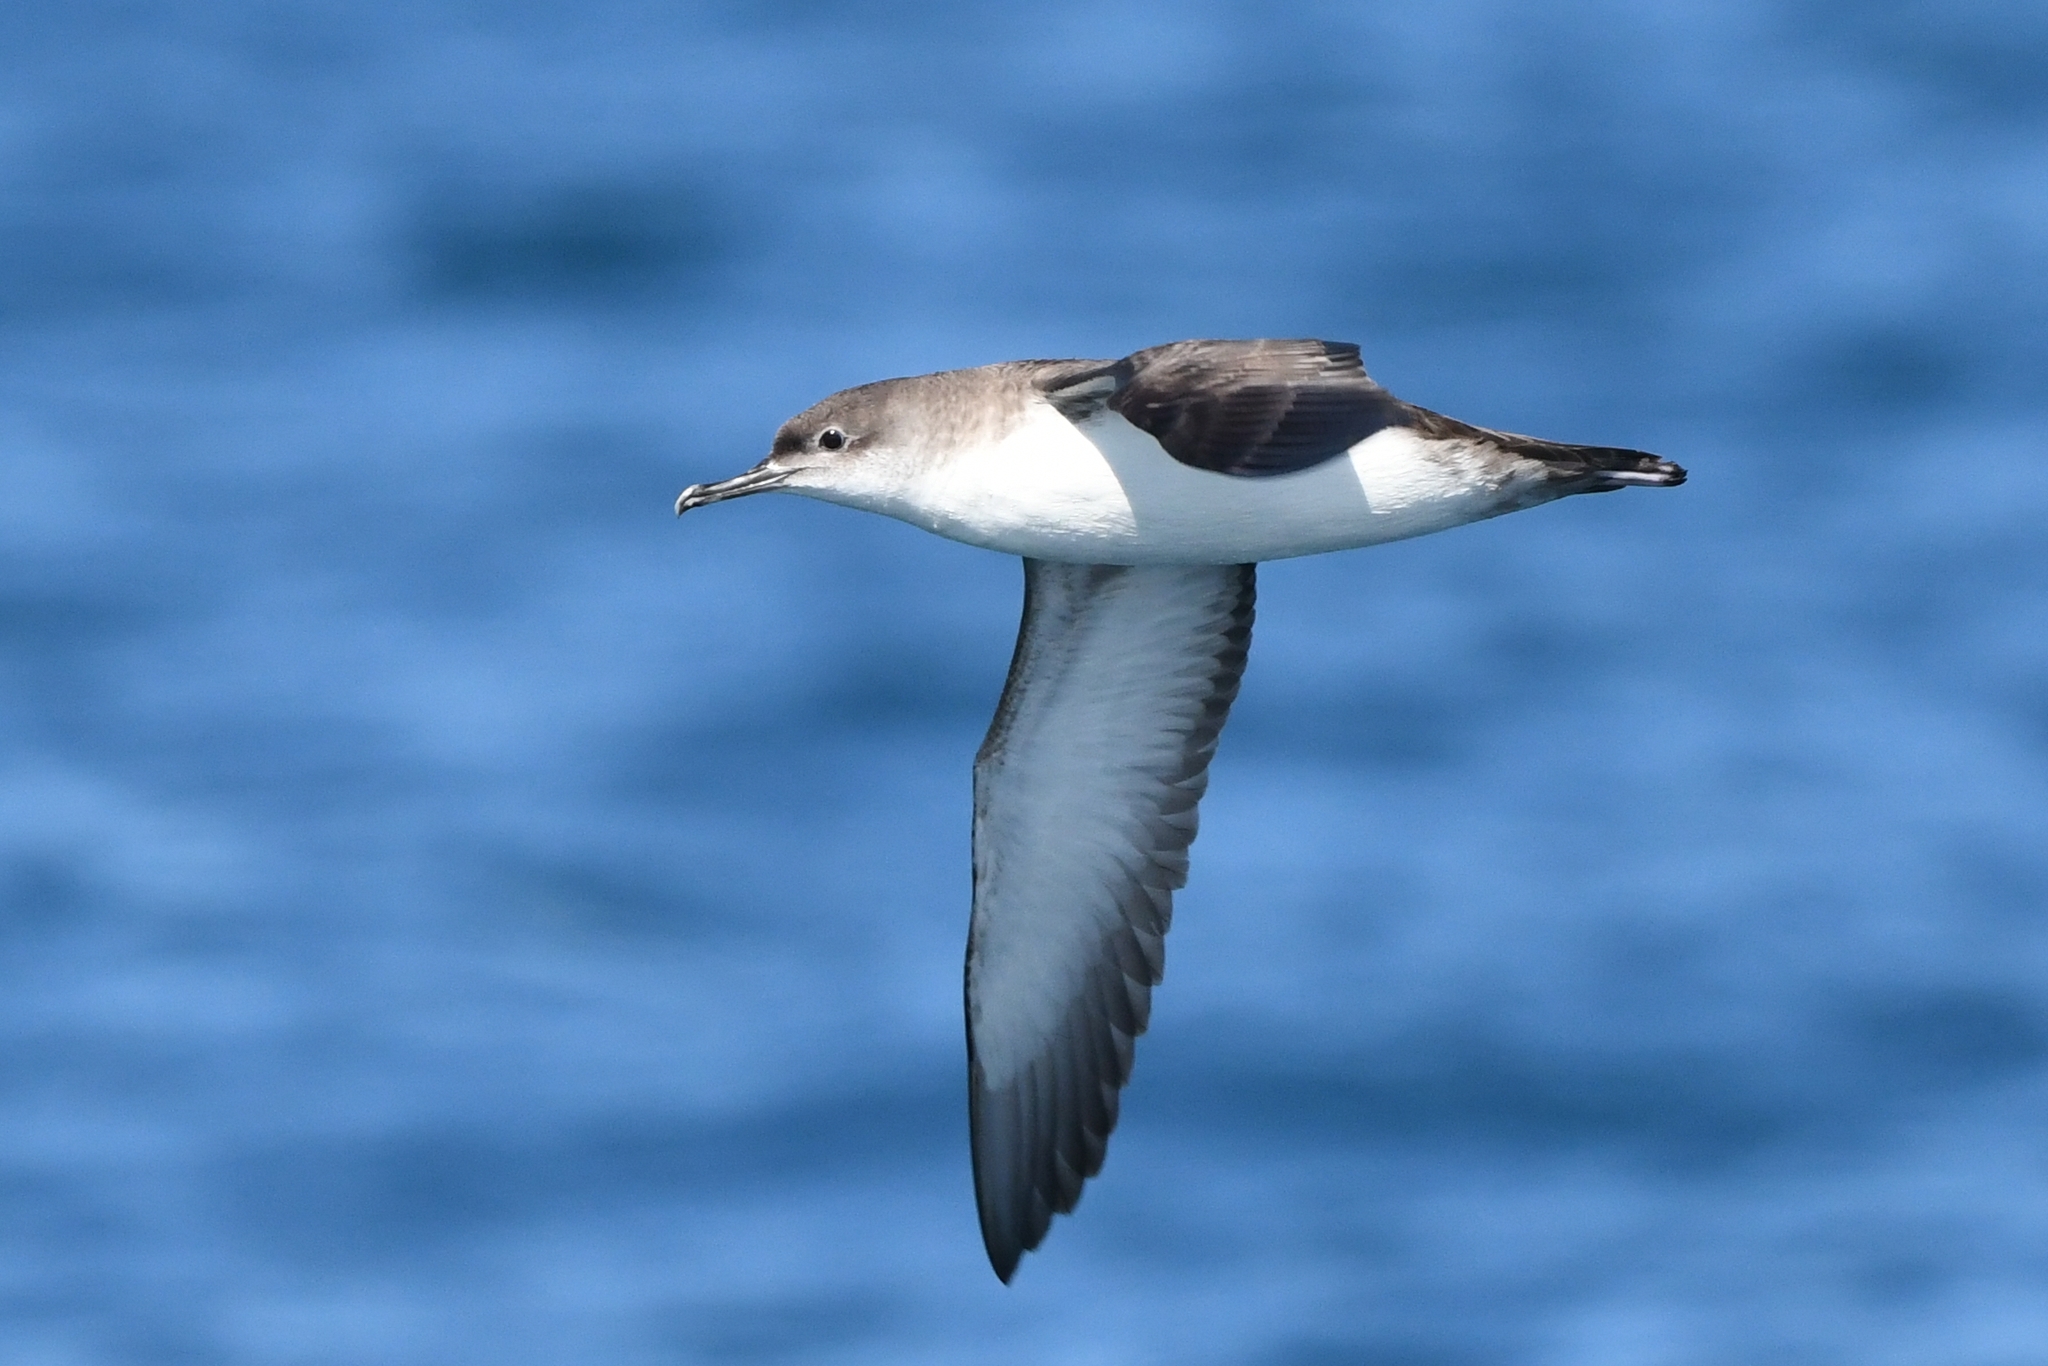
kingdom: Animalia
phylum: Chordata
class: Aves
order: Procellariiformes
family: Procellariidae
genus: Puffinus
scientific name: Puffinus yelkouan
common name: Yelkouan shearwater
